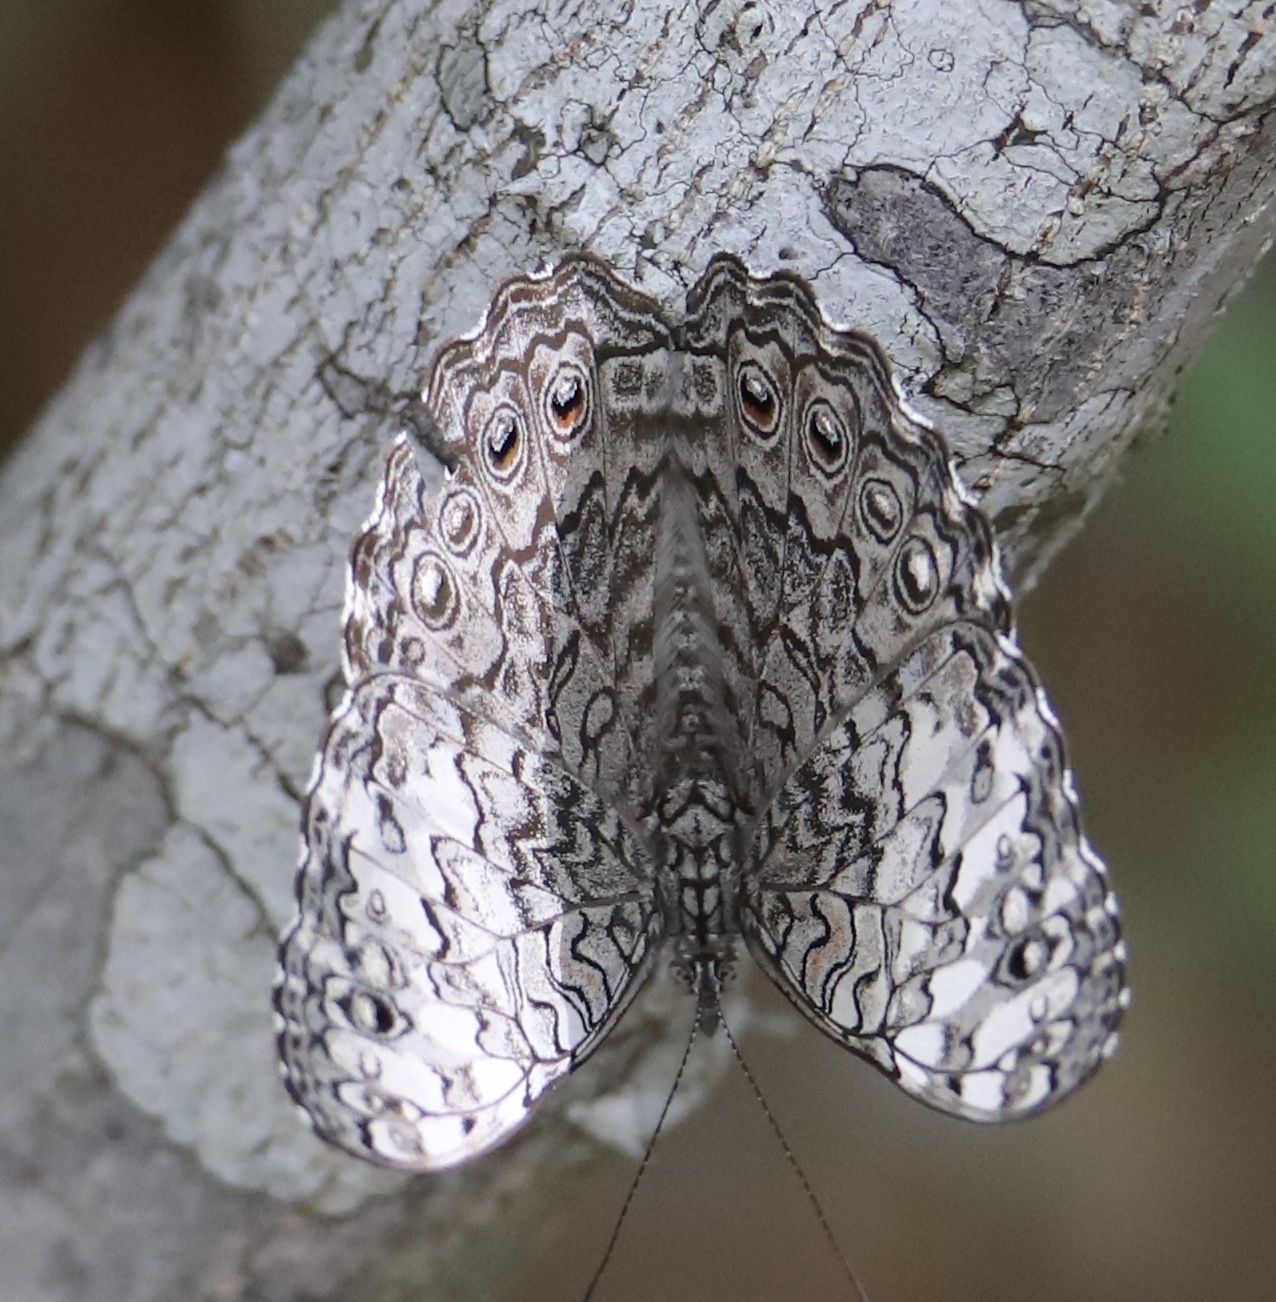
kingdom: Animalia
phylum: Arthropoda
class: Insecta
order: Lepidoptera
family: Nymphalidae
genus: Hamadryas
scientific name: Hamadryas februa
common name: Gray cracker
